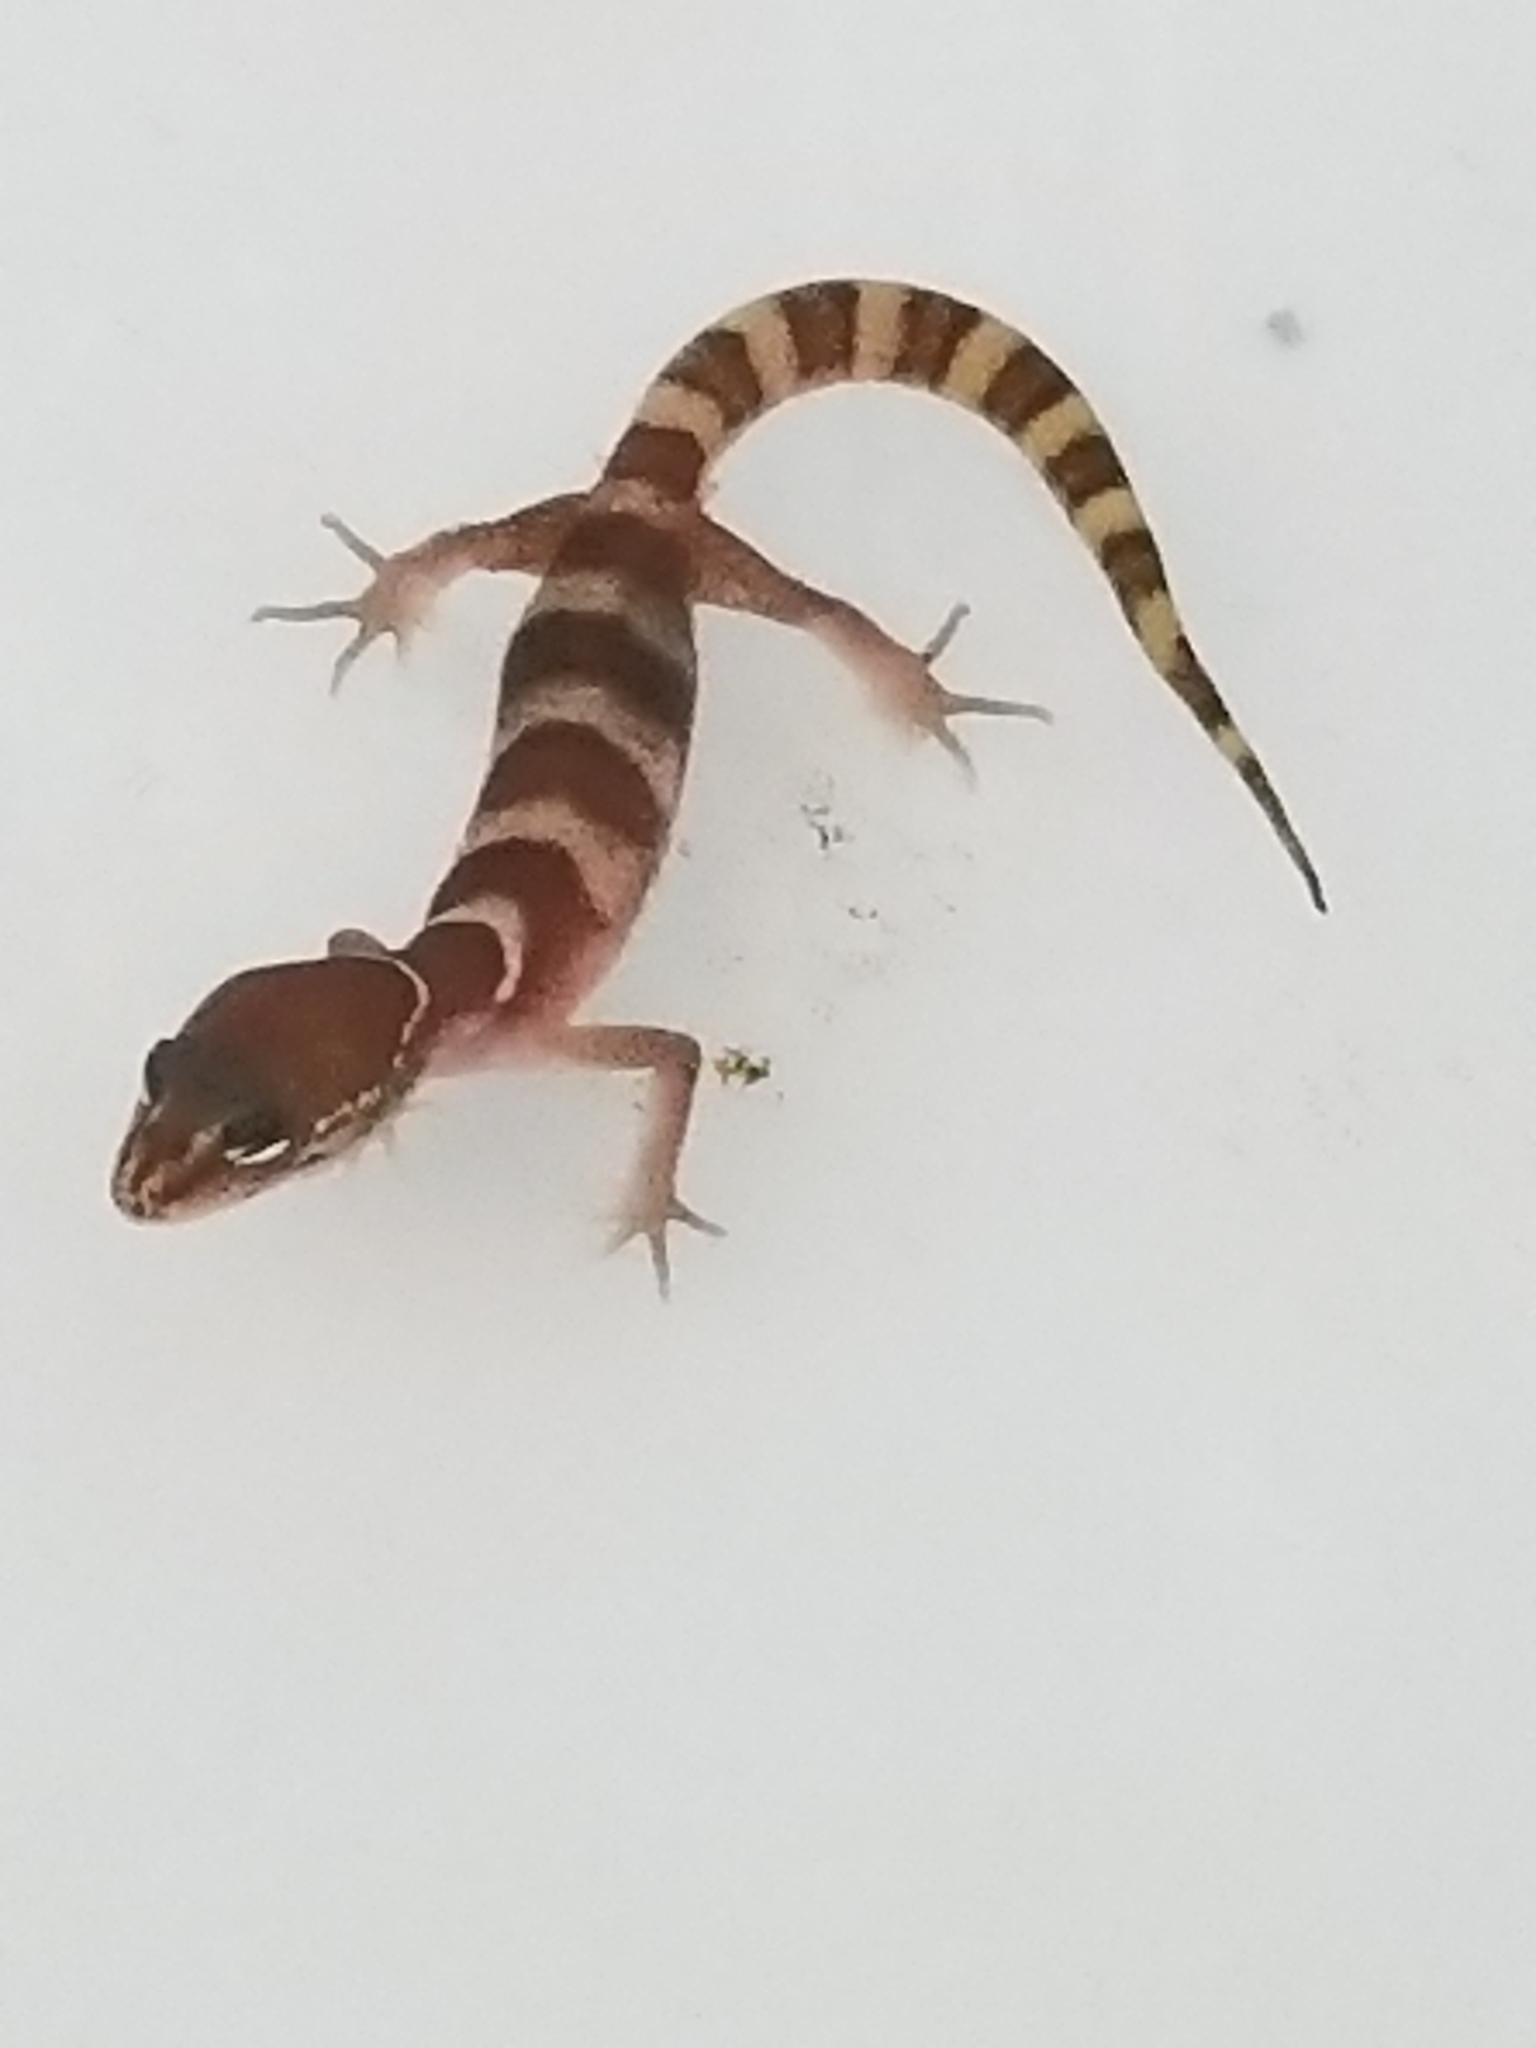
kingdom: Animalia
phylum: Chordata
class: Squamata
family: Eublepharidae
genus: Coleonyx
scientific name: Coleonyx variegatus
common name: Western banded gecko
